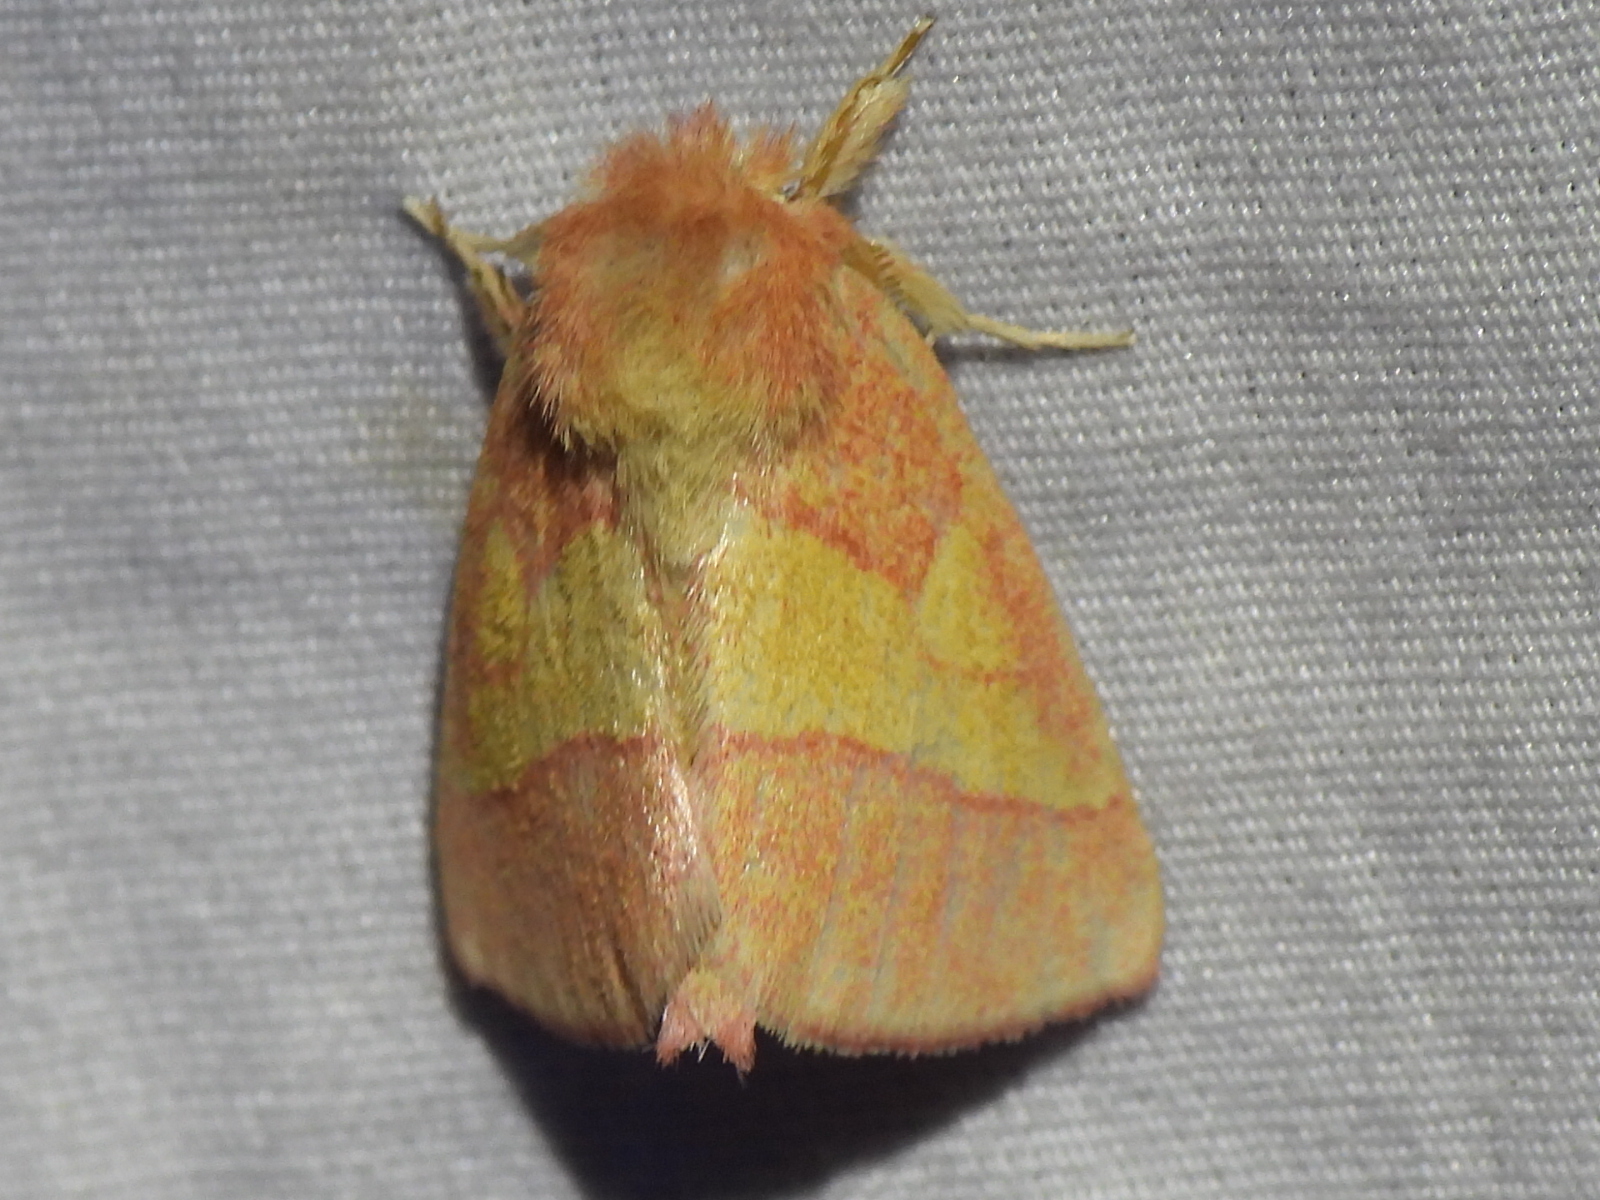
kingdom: Animalia
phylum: Arthropoda
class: Insecta
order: Lepidoptera
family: Notodontidae
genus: Hyparpax
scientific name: Hyparpax aurora
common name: Pink prominent
